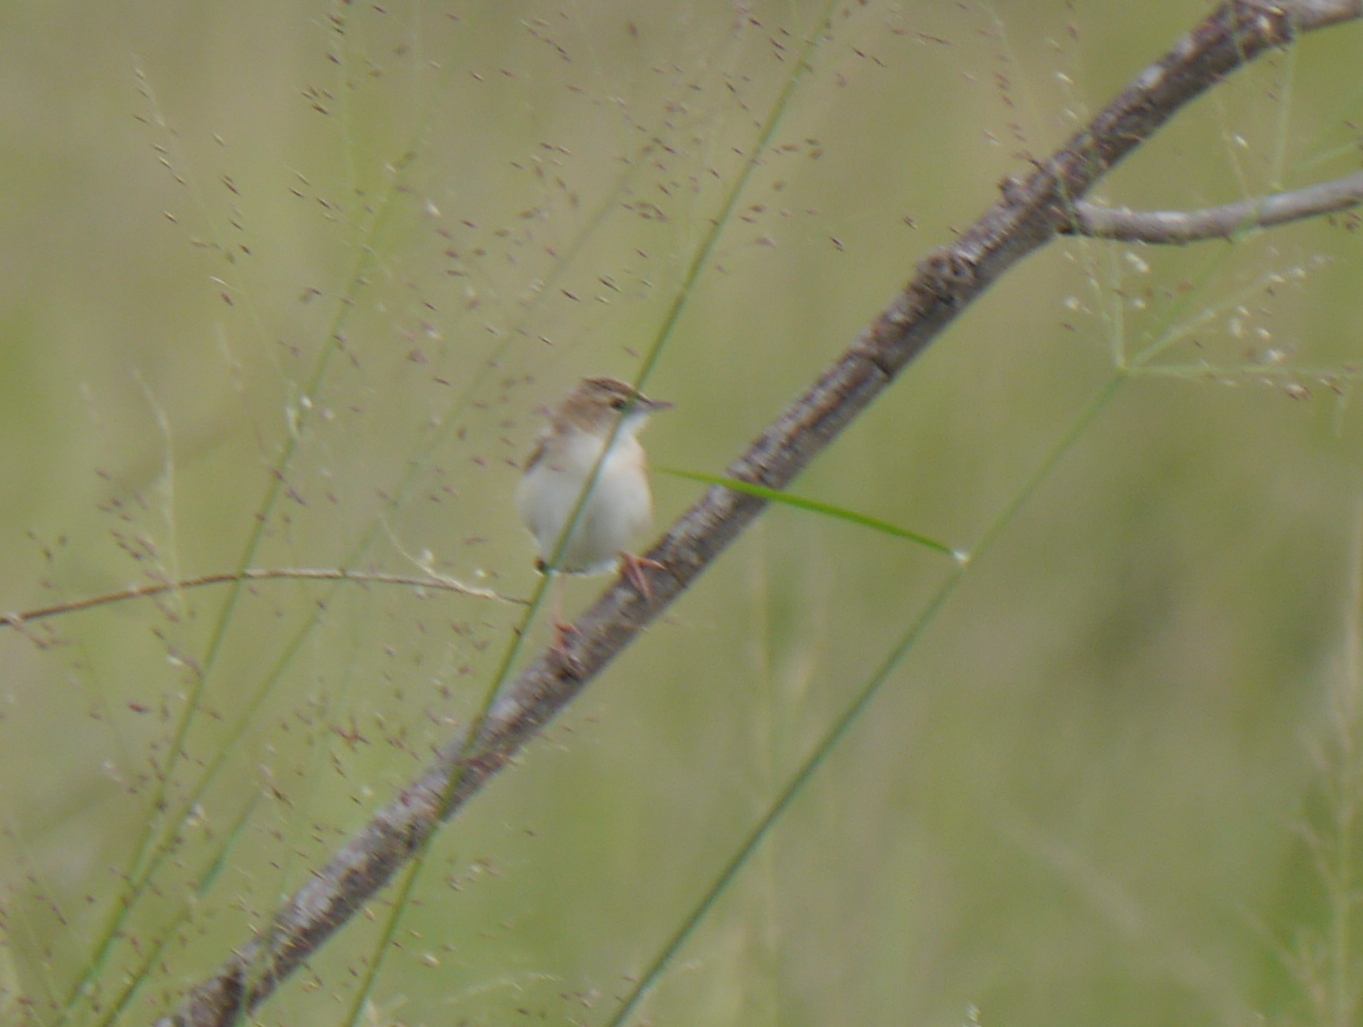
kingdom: Animalia
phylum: Chordata
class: Aves
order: Passeriformes
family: Cisticolidae
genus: Cisticola
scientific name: Cisticola
